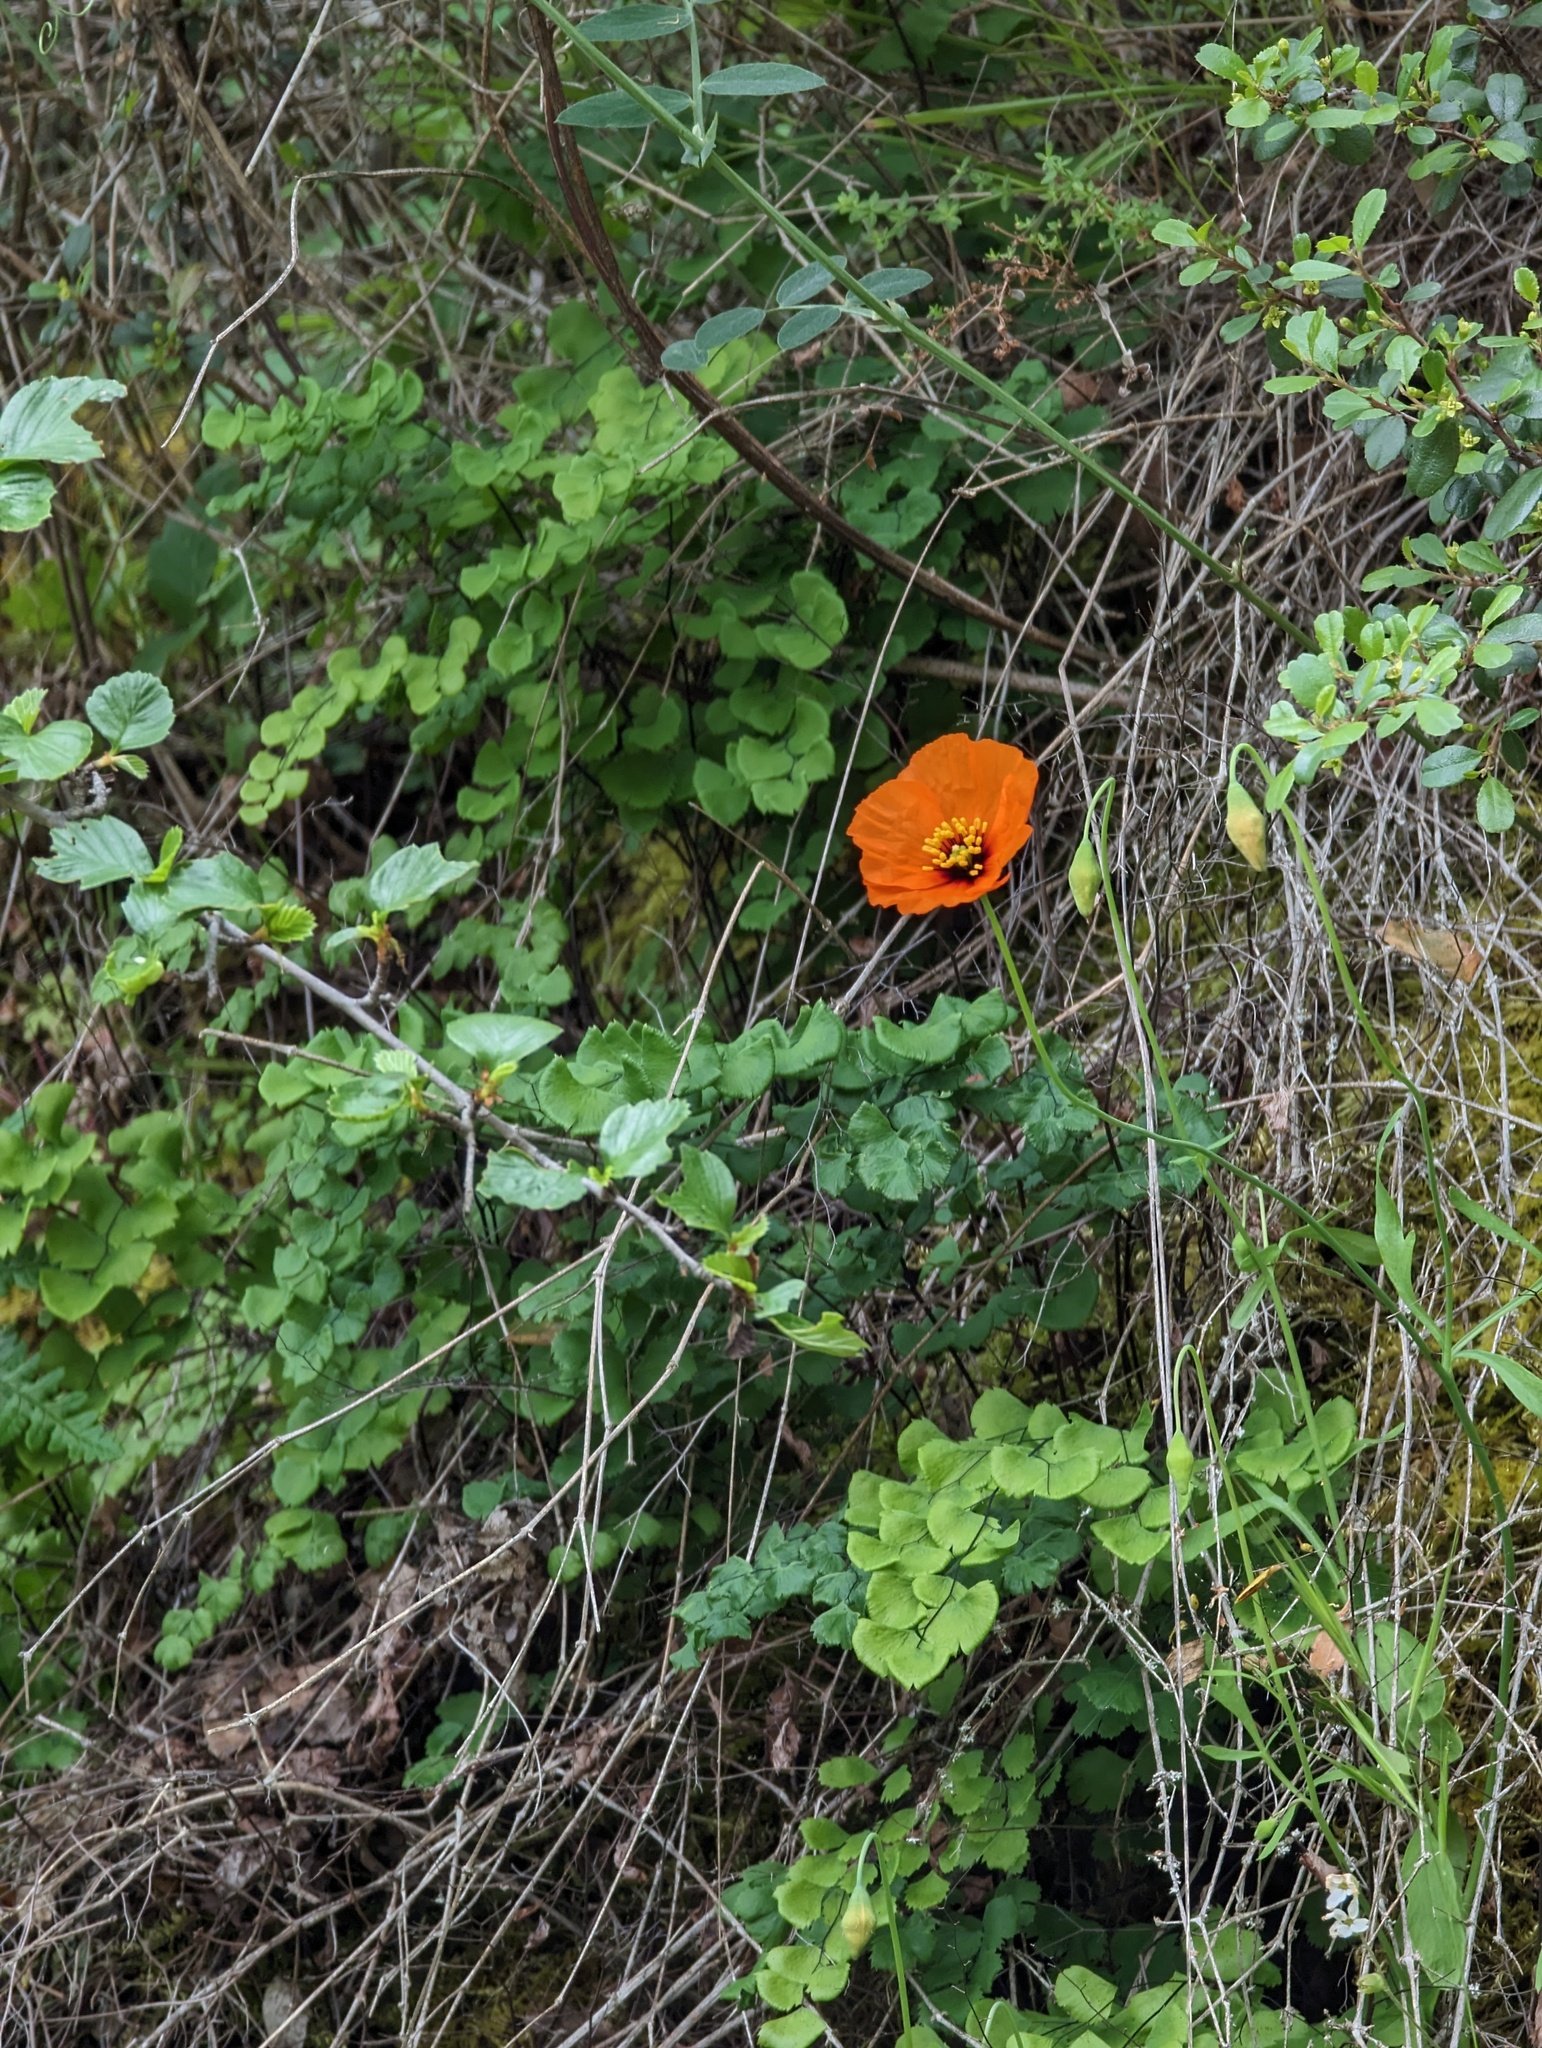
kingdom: Plantae
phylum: Tracheophyta
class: Magnoliopsida
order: Ranunculales
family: Papaveraceae
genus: Stylomecon
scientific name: Stylomecon heterophylla
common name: Flaming-poppy
